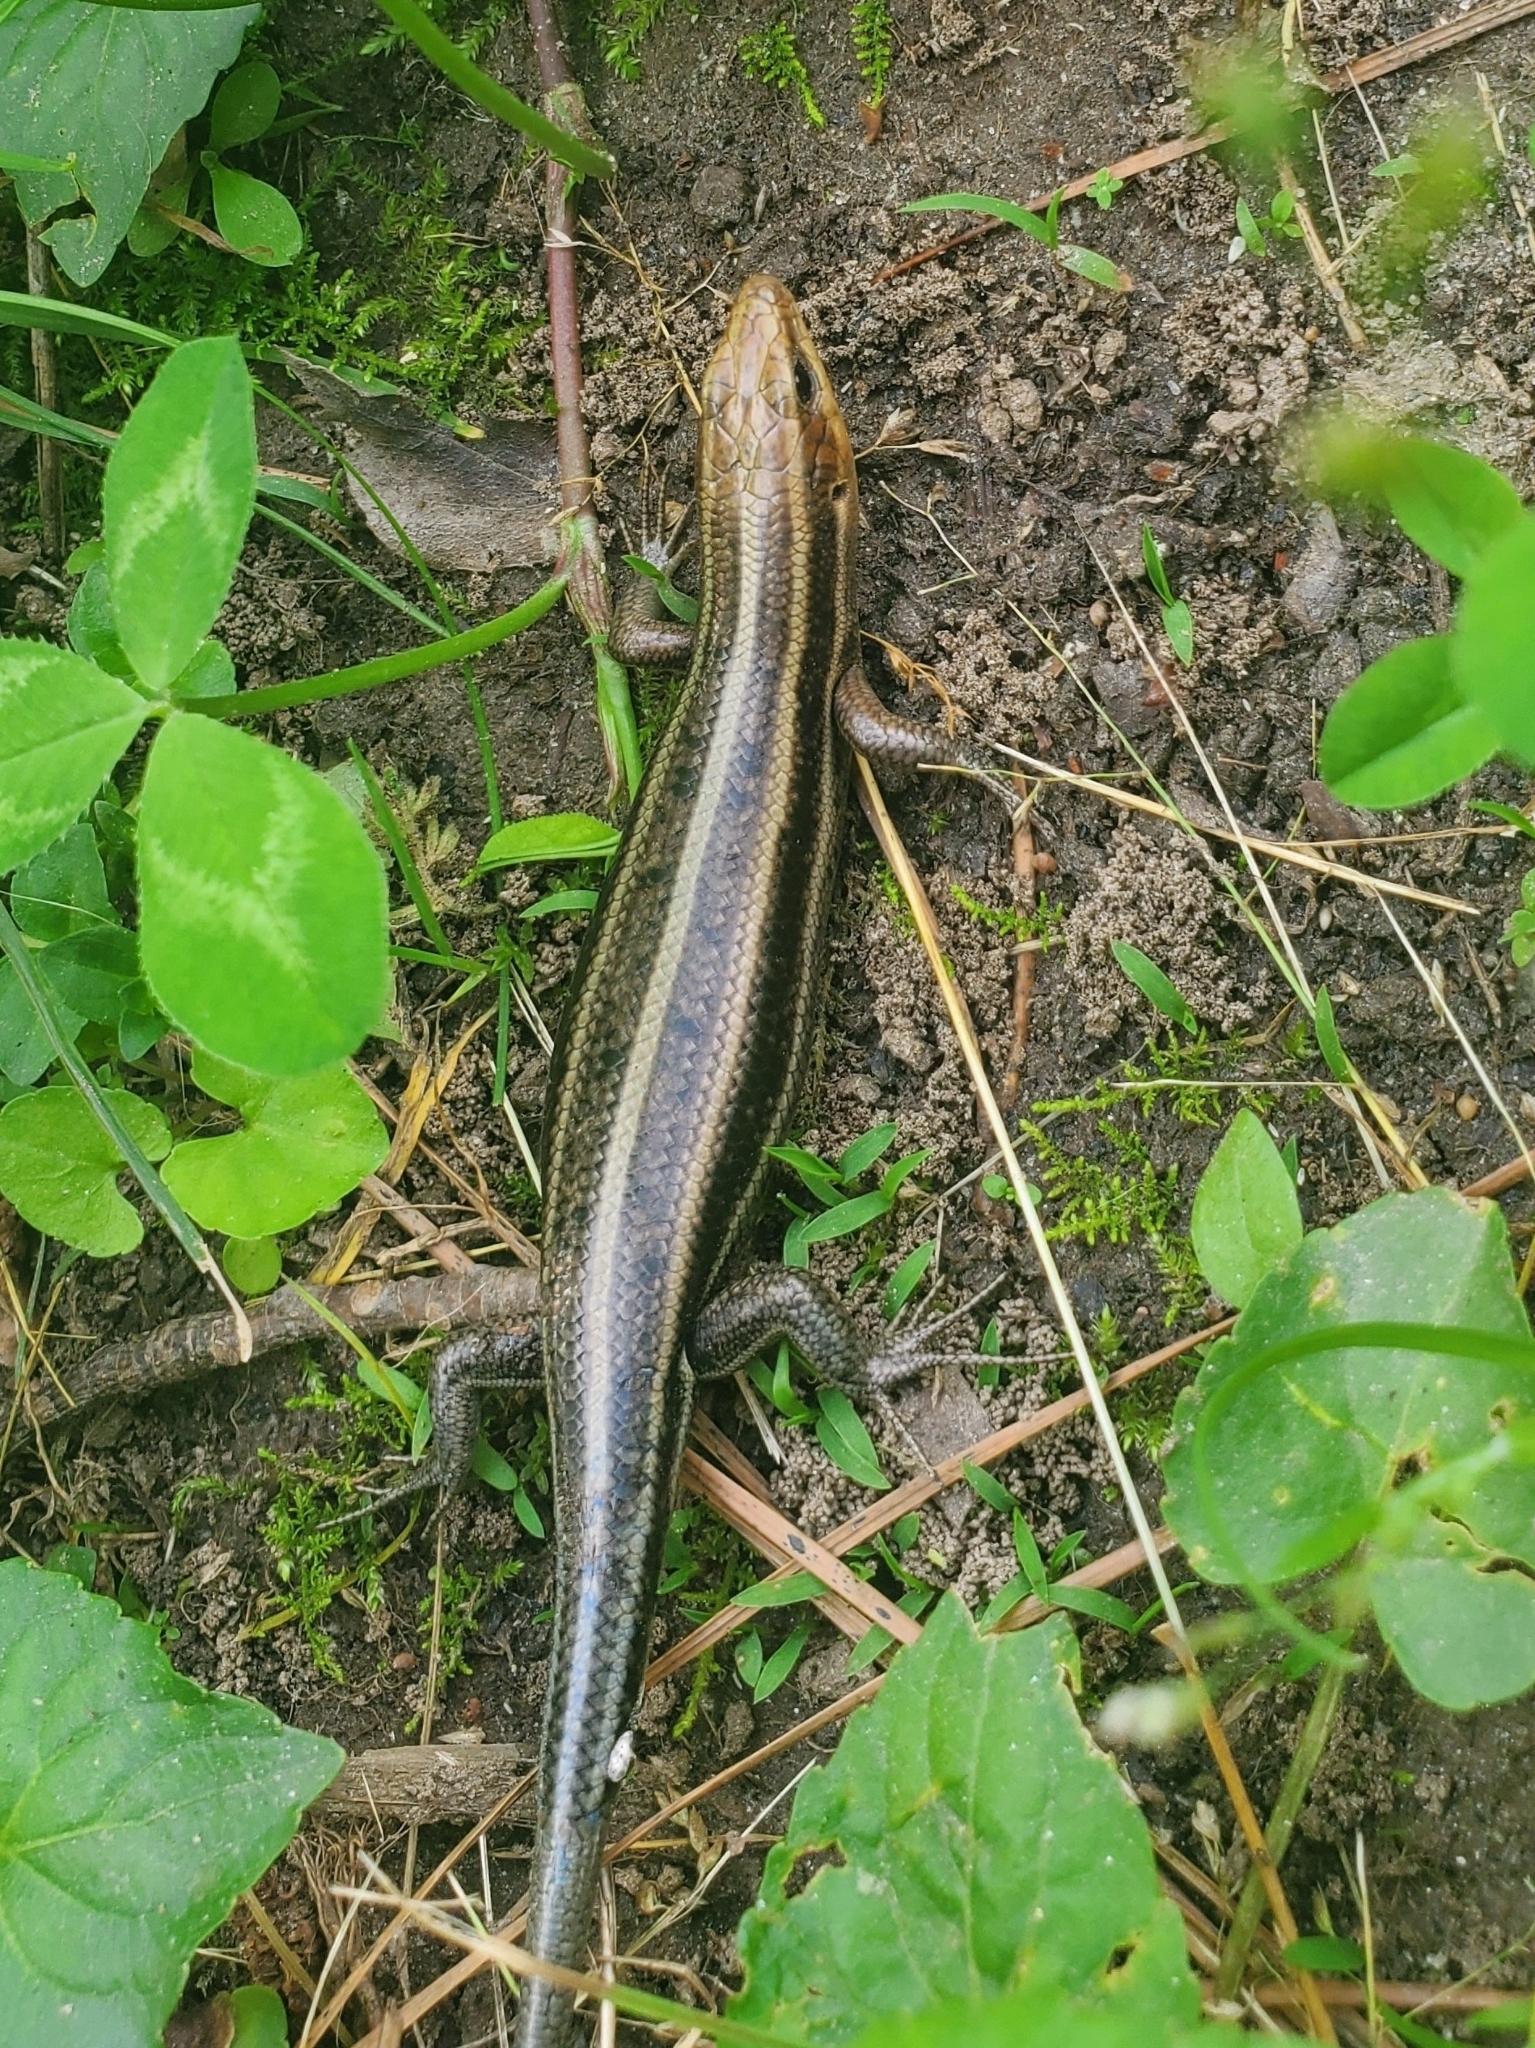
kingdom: Animalia
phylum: Chordata
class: Squamata
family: Scincidae
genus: Plestiodon
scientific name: Plestiodon fasciatus
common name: Five-lined skink
